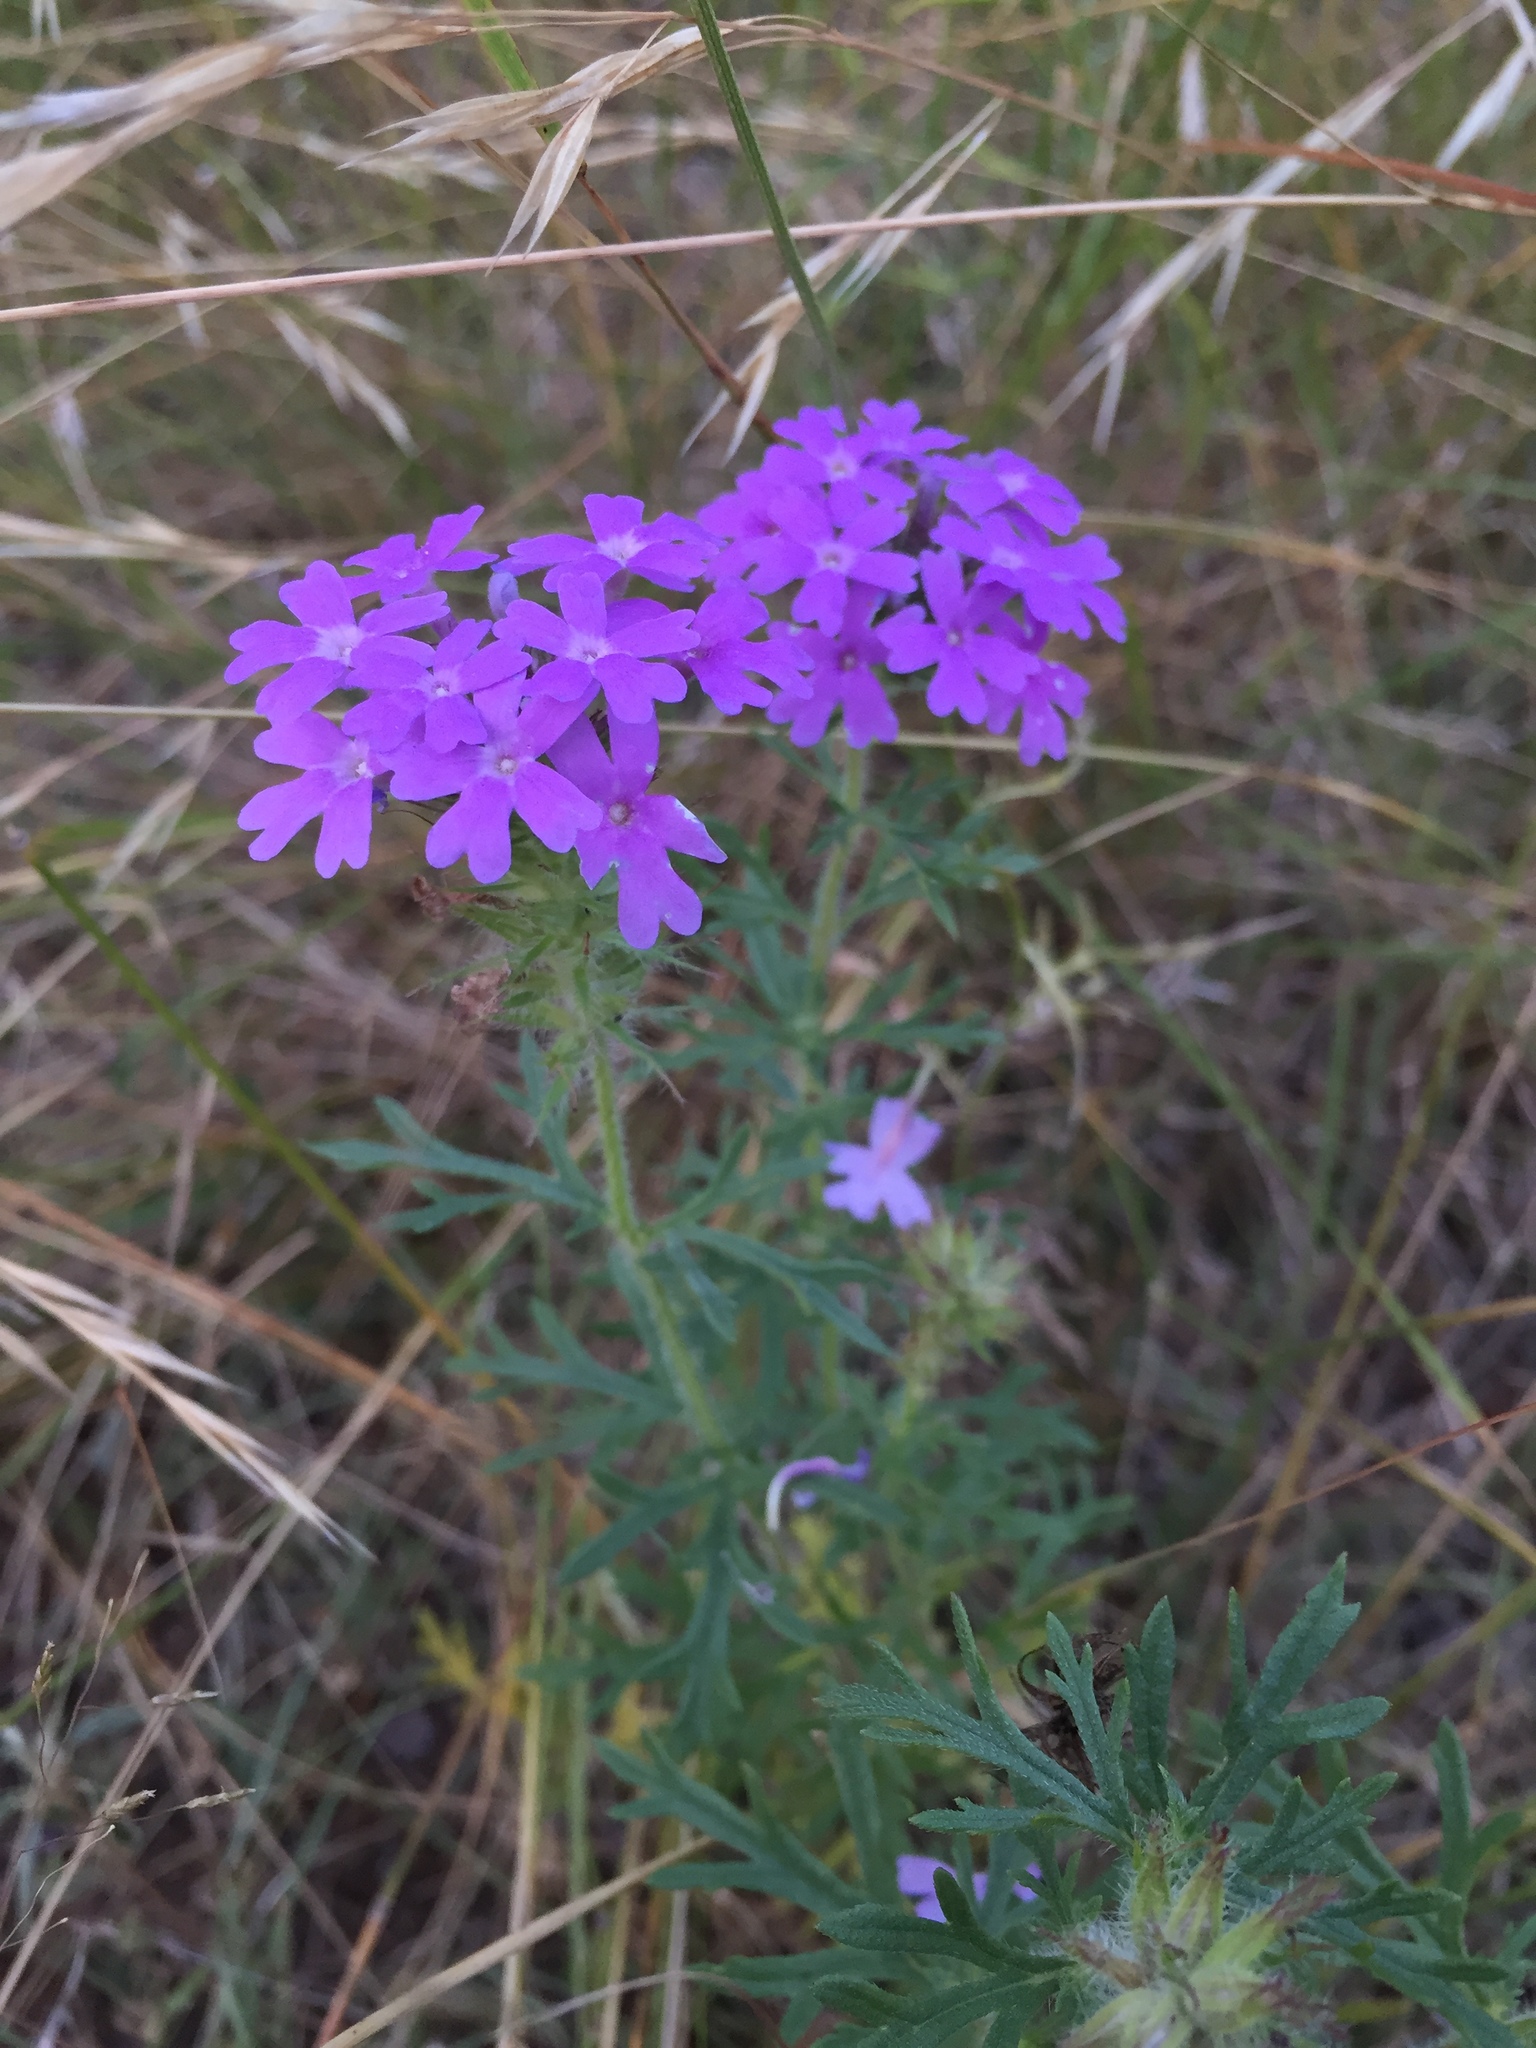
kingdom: Plantae
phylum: Tracheophyta
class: Magnoliopsida
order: Lamiales
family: Verbenaceae
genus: Verbena
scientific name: Verbena bipinnatifida
